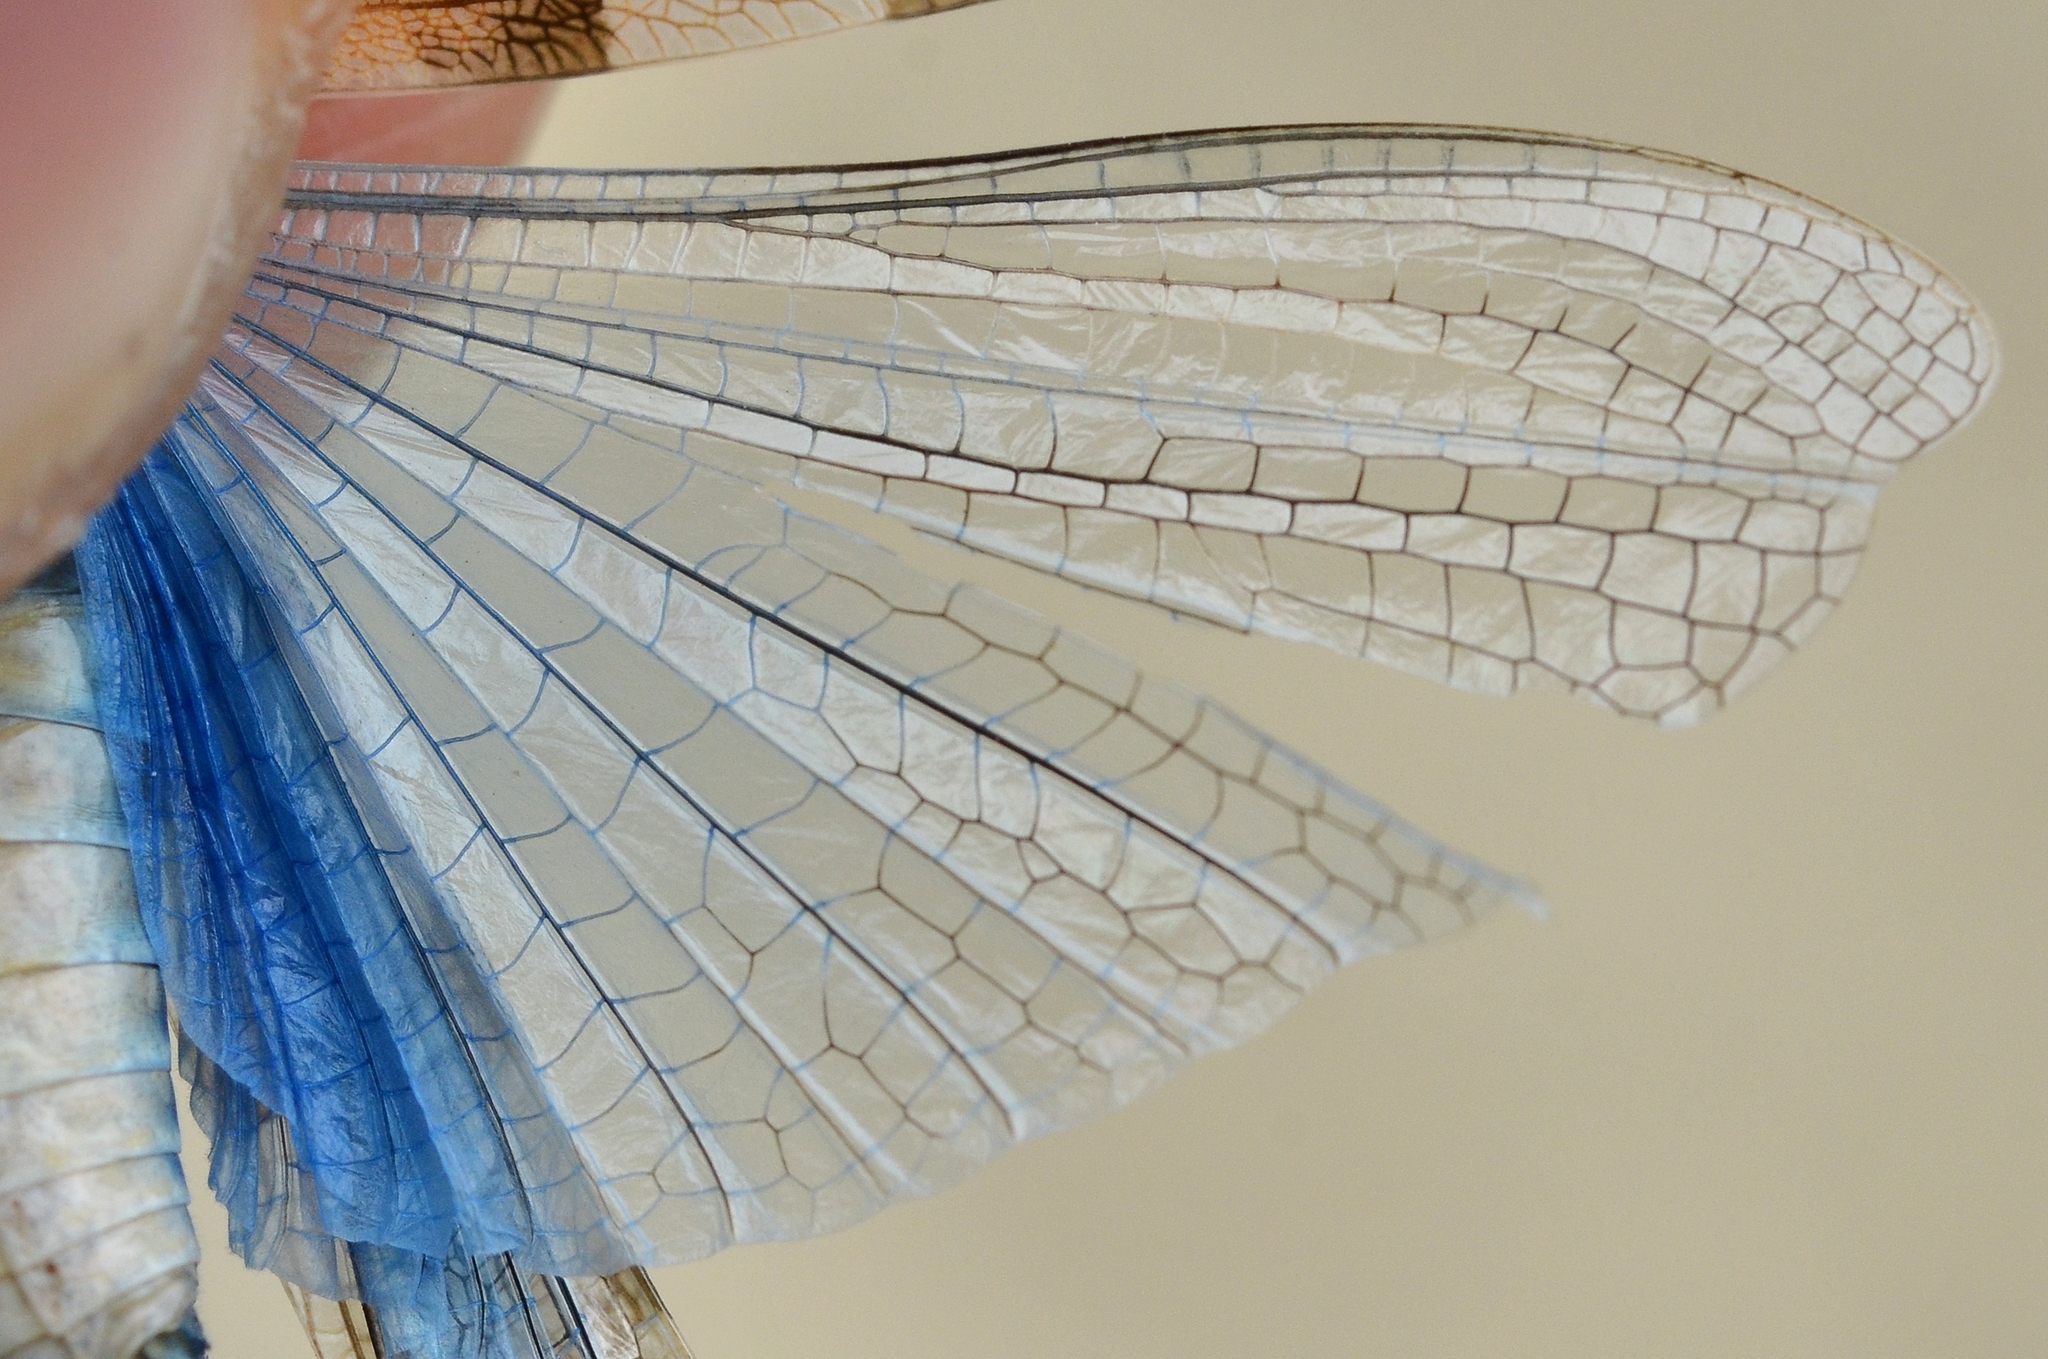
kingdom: Animalia
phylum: Arthropoda
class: Insecta
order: Orthoptera
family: Acrididae
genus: Sphingonotus
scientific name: Sphingonotus caerulans
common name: Blue-winged locust
